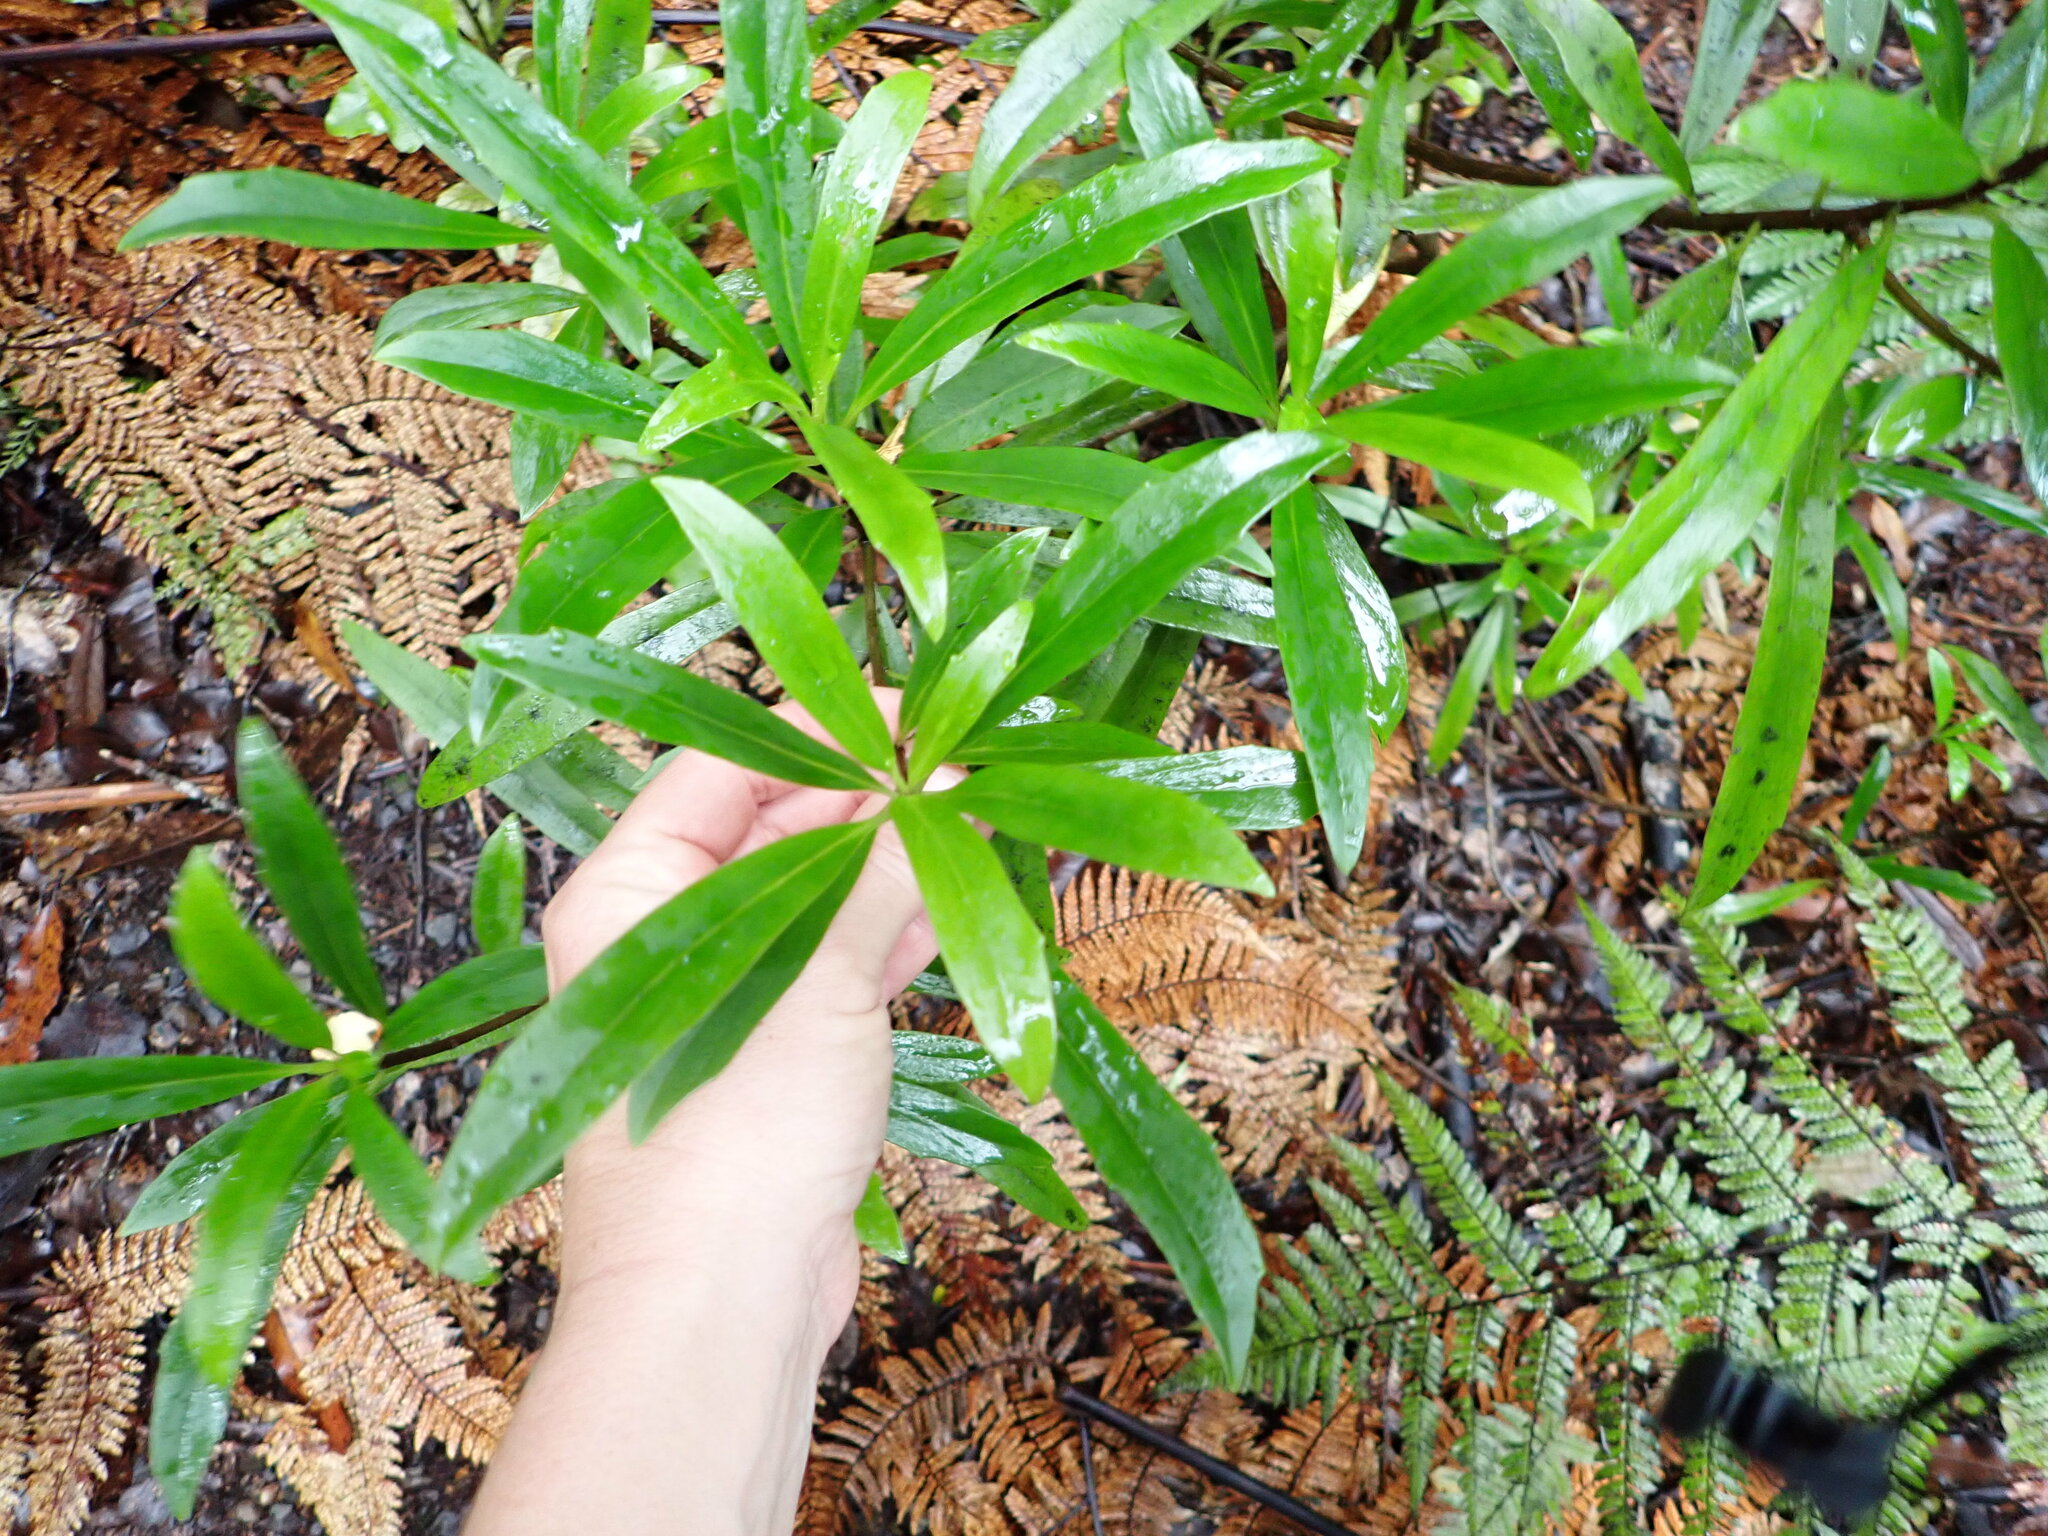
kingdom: Plantae
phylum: Tracheophyta
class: Magnoliopsida
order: Asterales
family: Asteraceae
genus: Brachyglottis
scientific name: Brachyglottis kirkii
